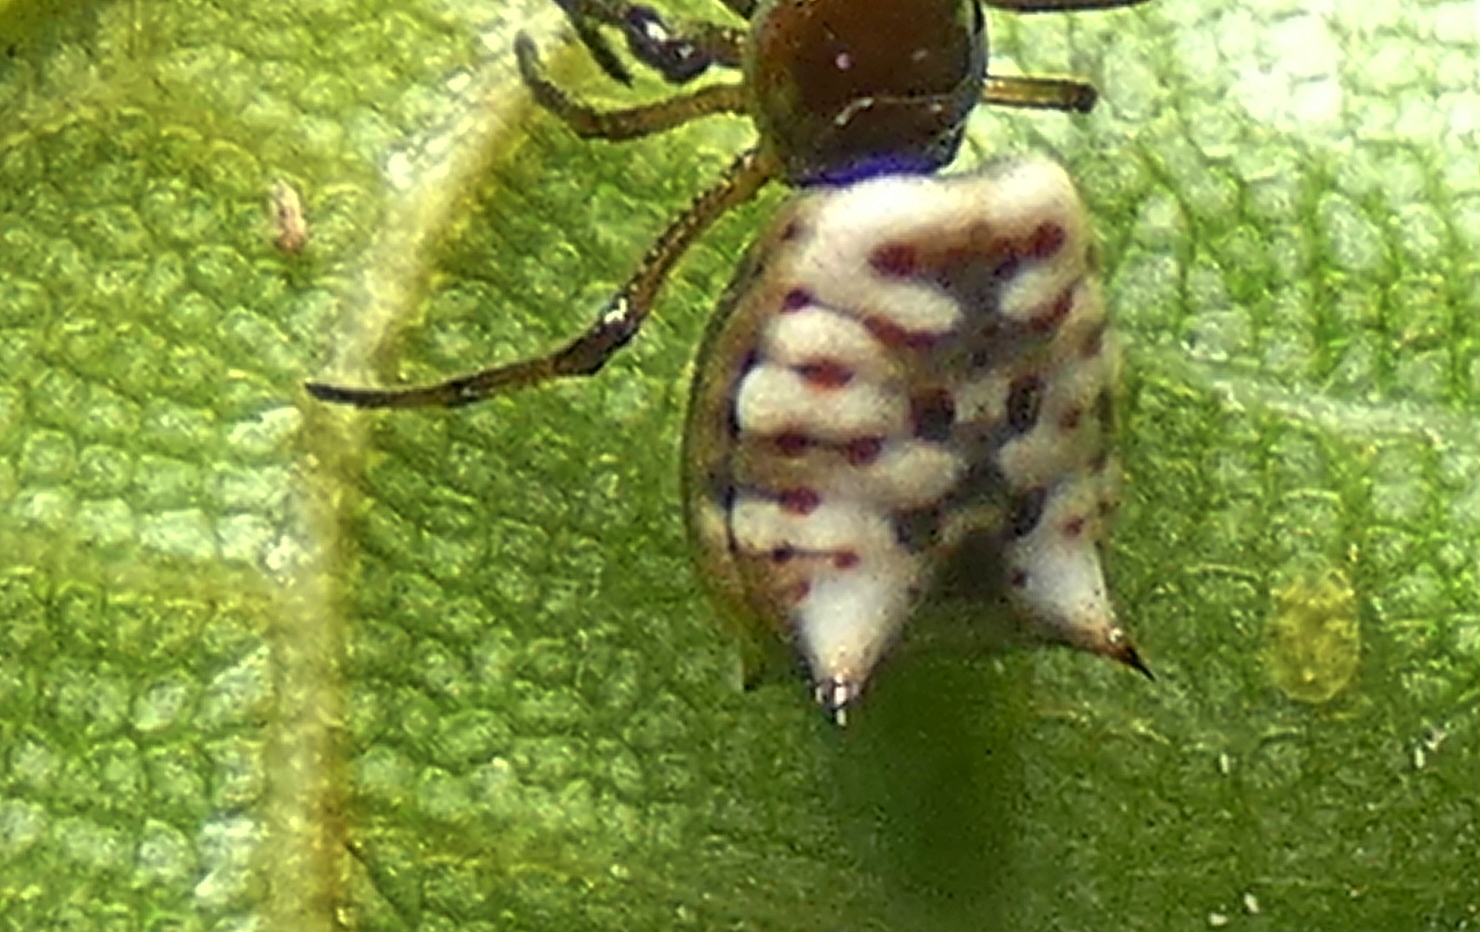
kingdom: Animalia
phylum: Arthropoda
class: Arachnida
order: Araneae
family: Araneidae
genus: Micrathena
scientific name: Micrathena patruelis
